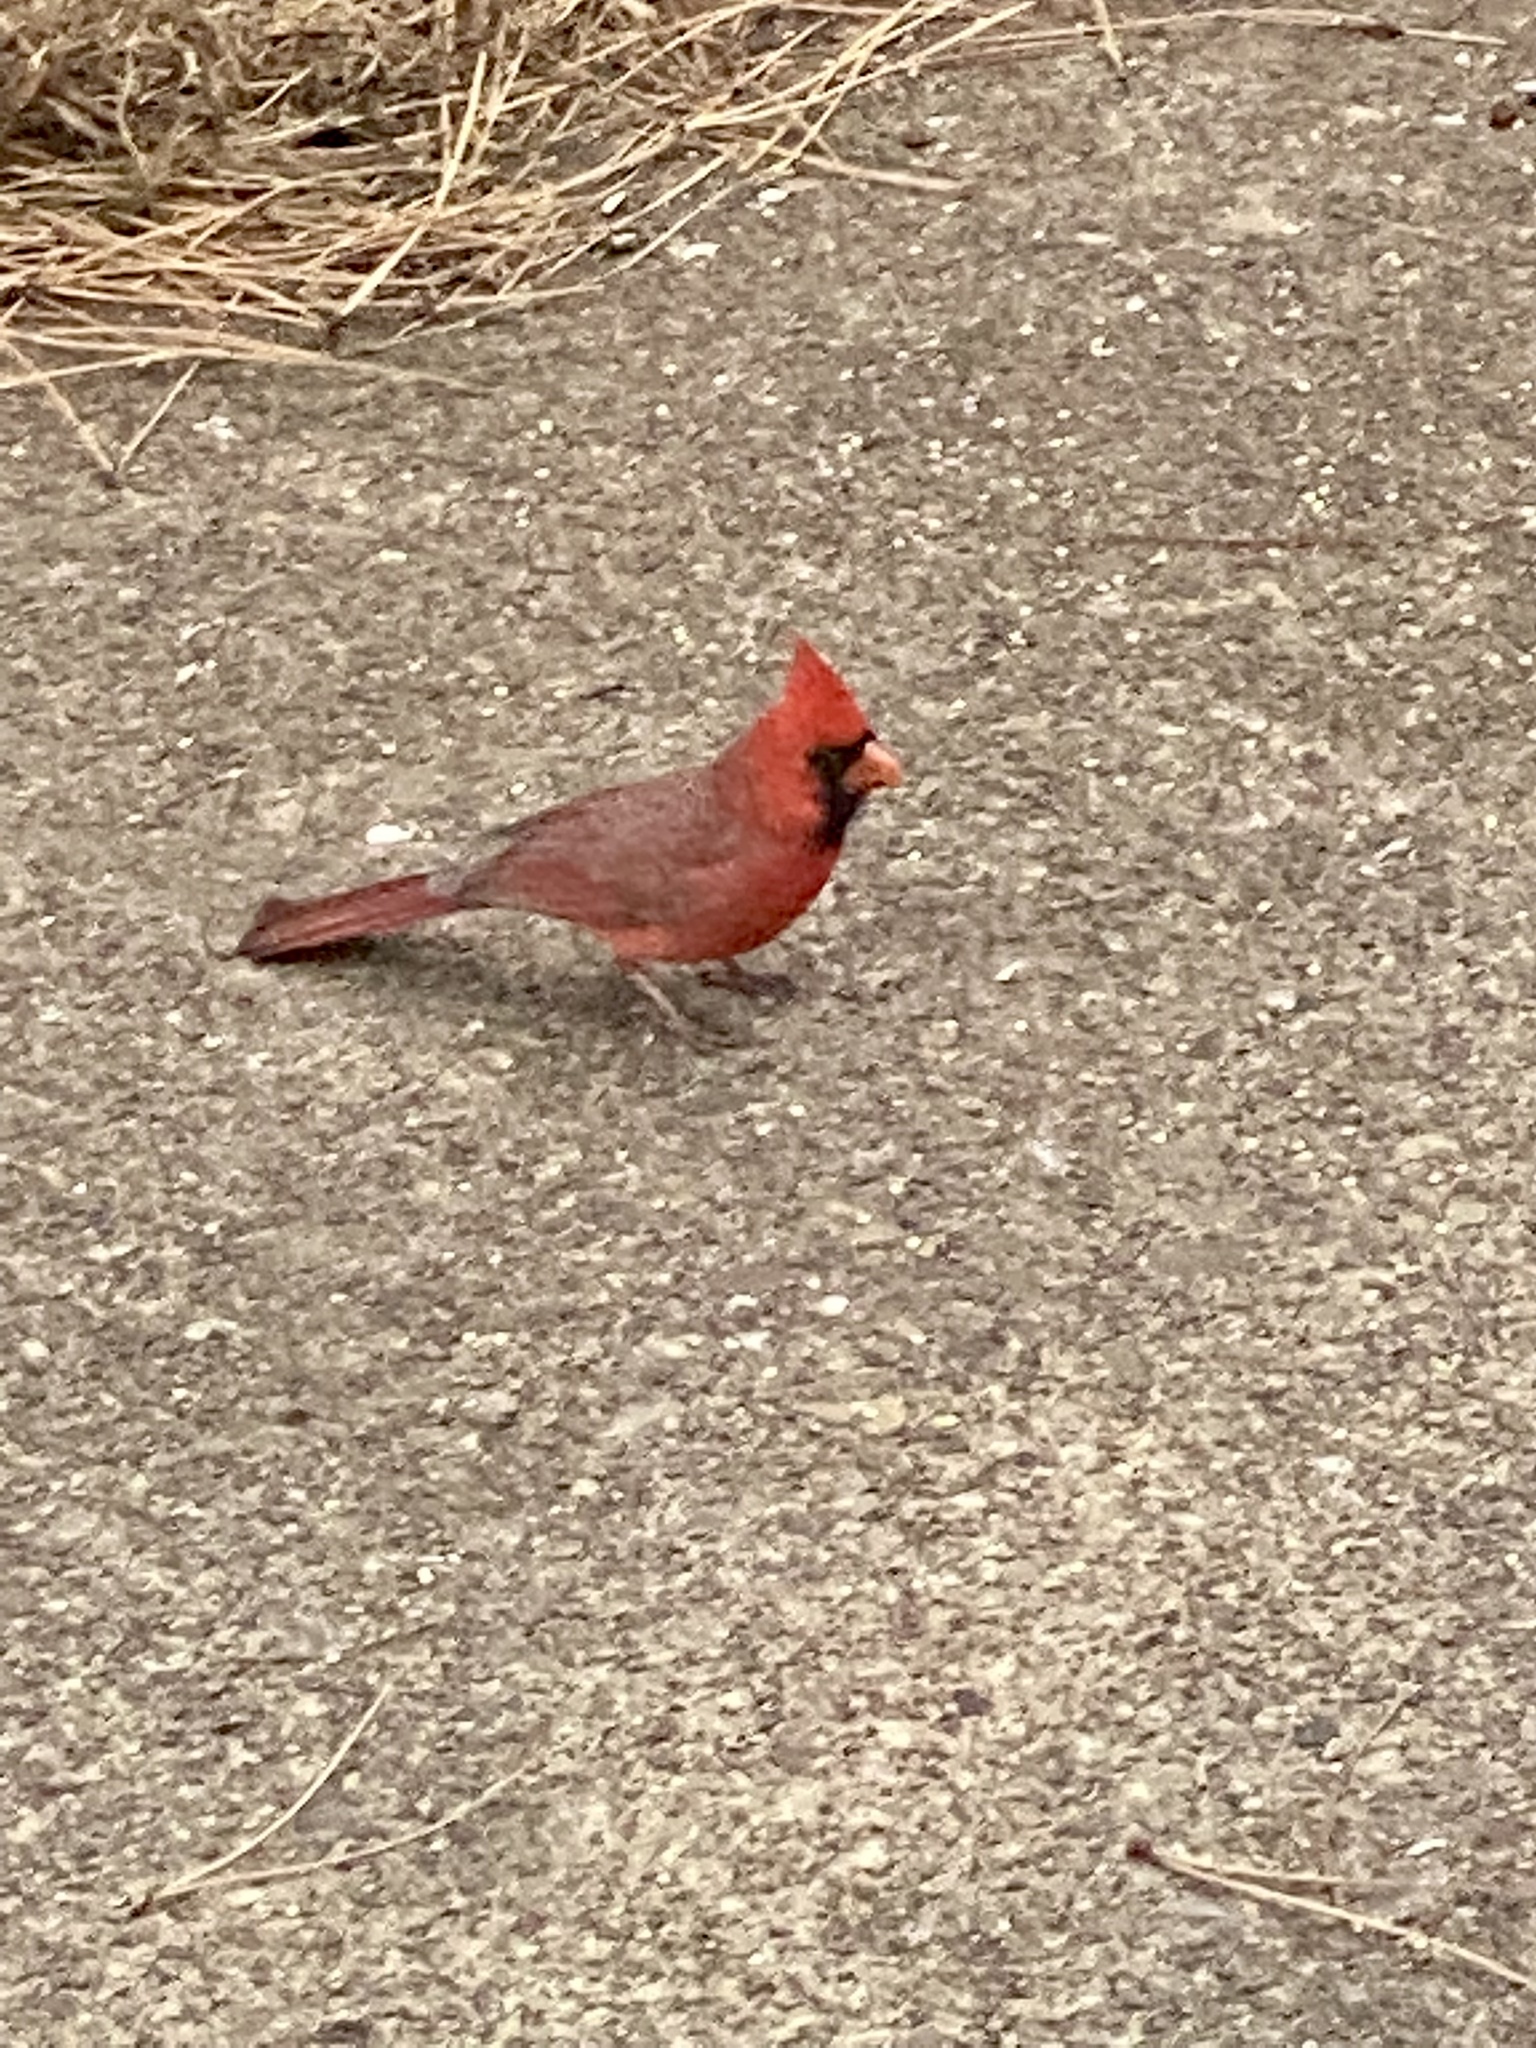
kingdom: Animalia
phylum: Chordata
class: Aves
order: Passeriformes
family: Cardinalidae
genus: Cardinalis
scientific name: Cardinalis cardinalis
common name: Northern cardinal
